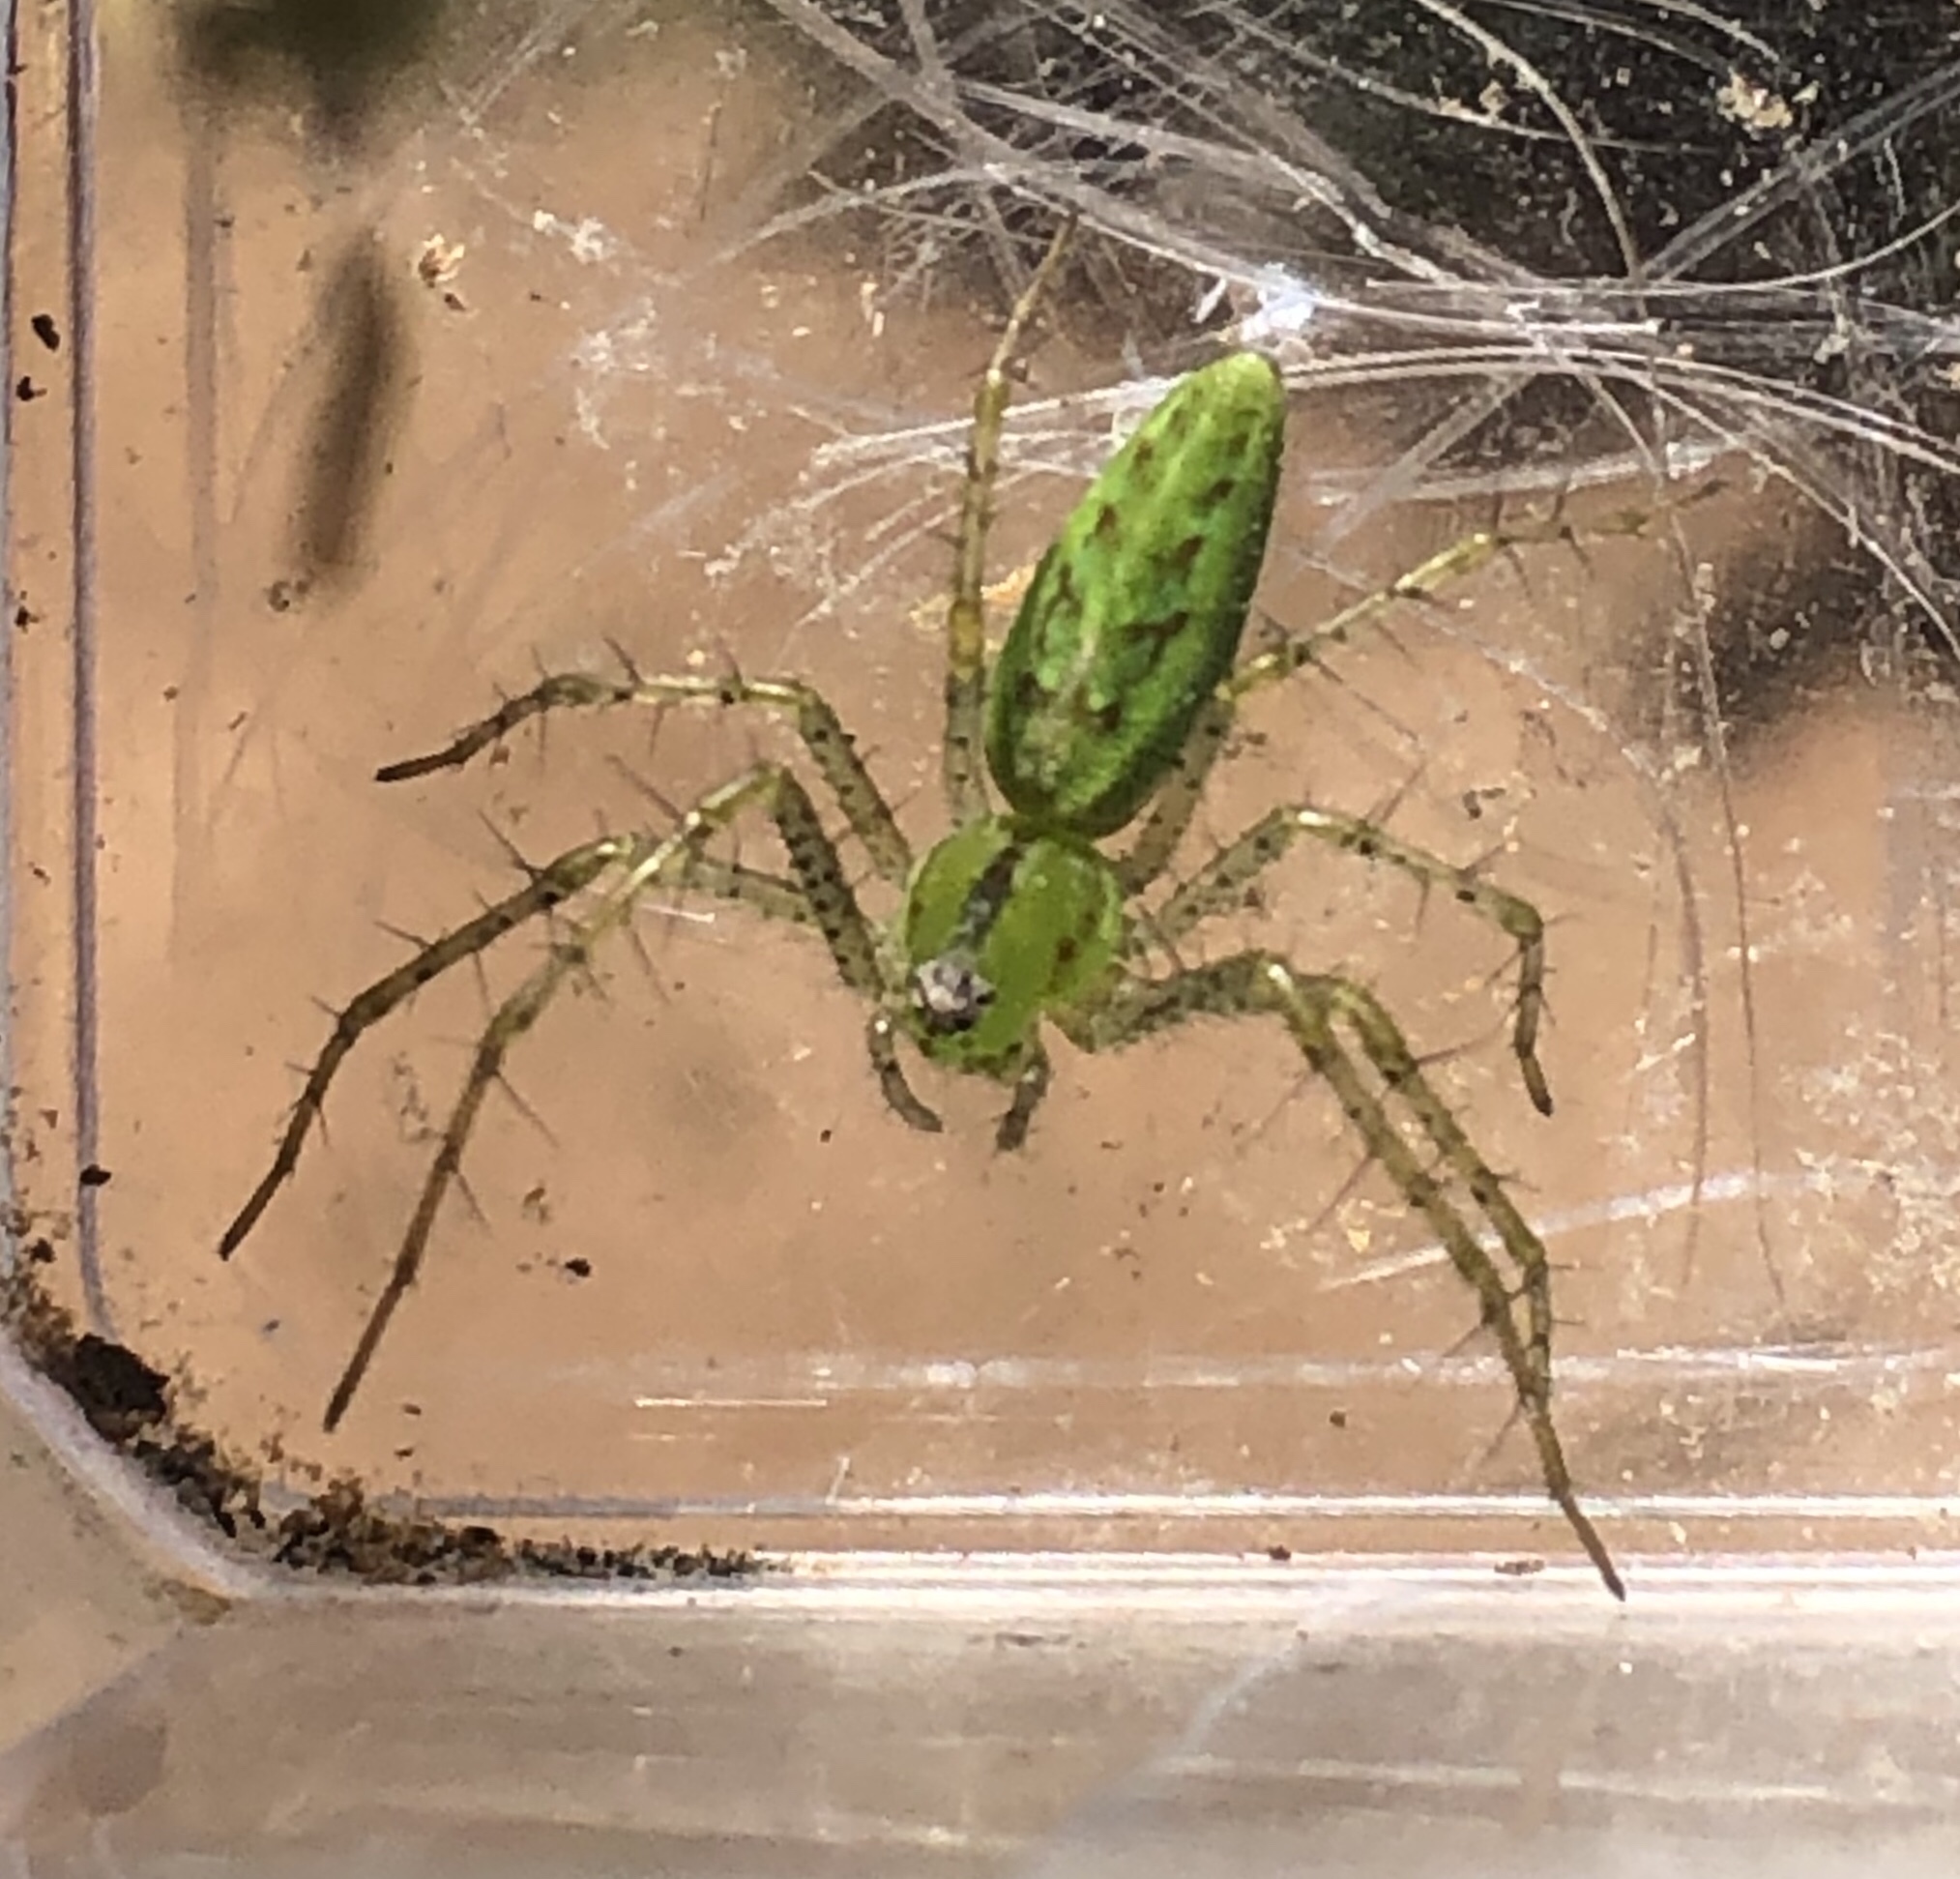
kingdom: Animalia
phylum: Arthropoda
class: Arachnida
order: Araneae
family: Oxyopidae
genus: Peucetia
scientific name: Peucetia viridans
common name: Lynx spiders
